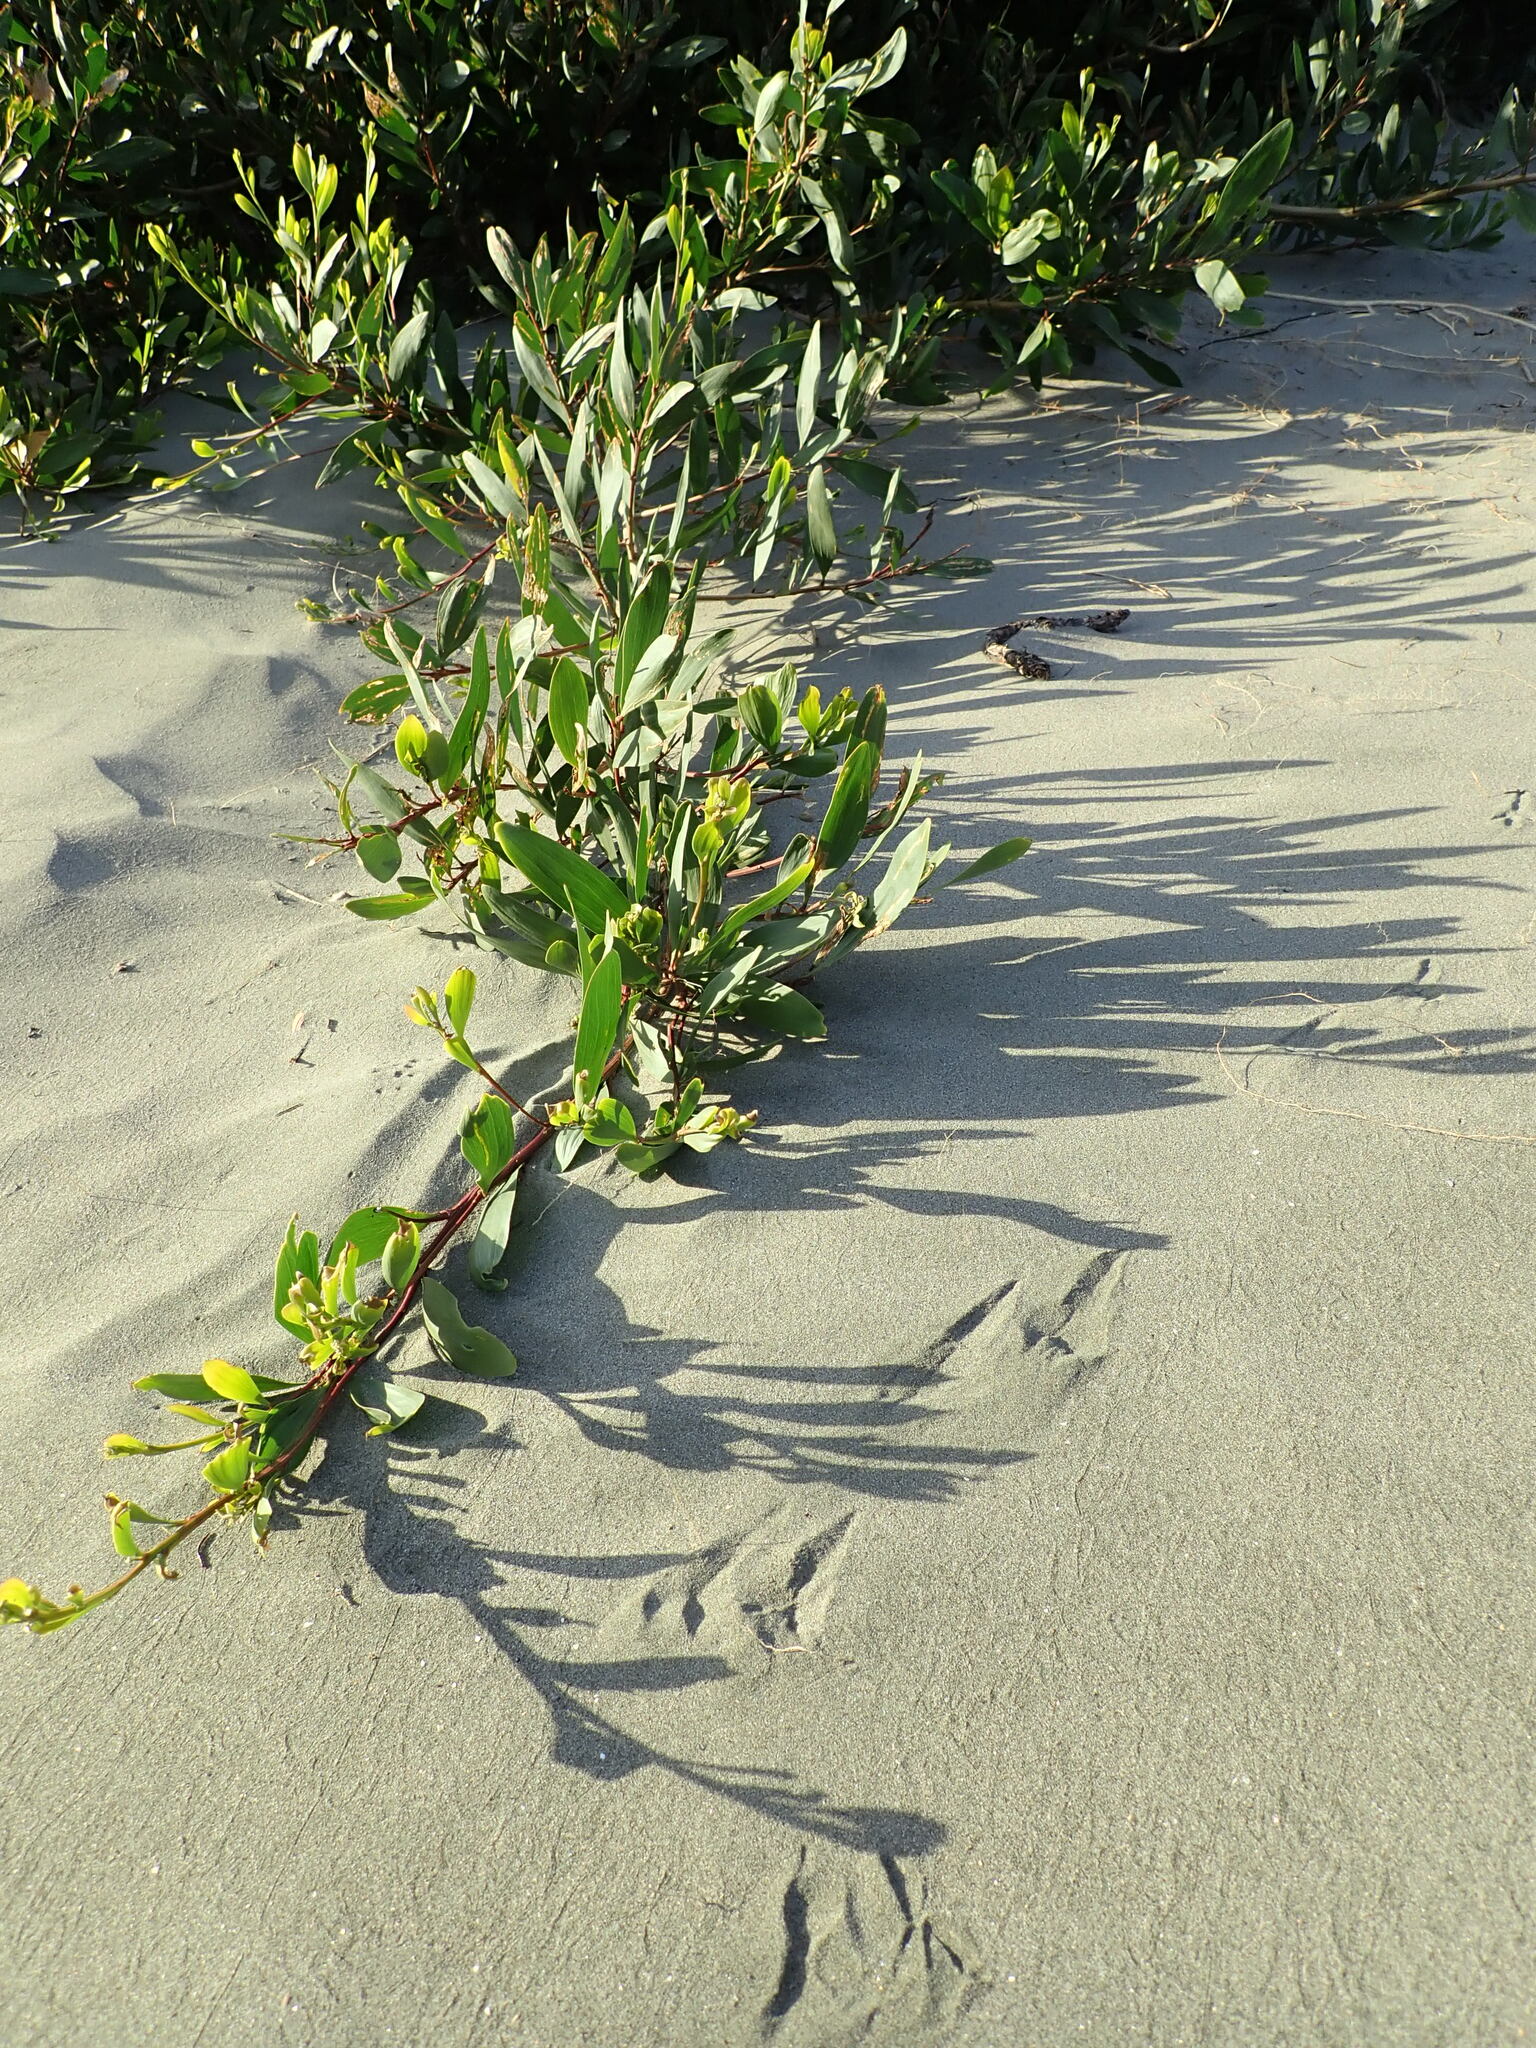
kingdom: Plantae
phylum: Tracheophyta
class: Magnoliopsida
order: Fabales
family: Fabaceae
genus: Acacia
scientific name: Acacia longifolia
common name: Sydney golden wattle
